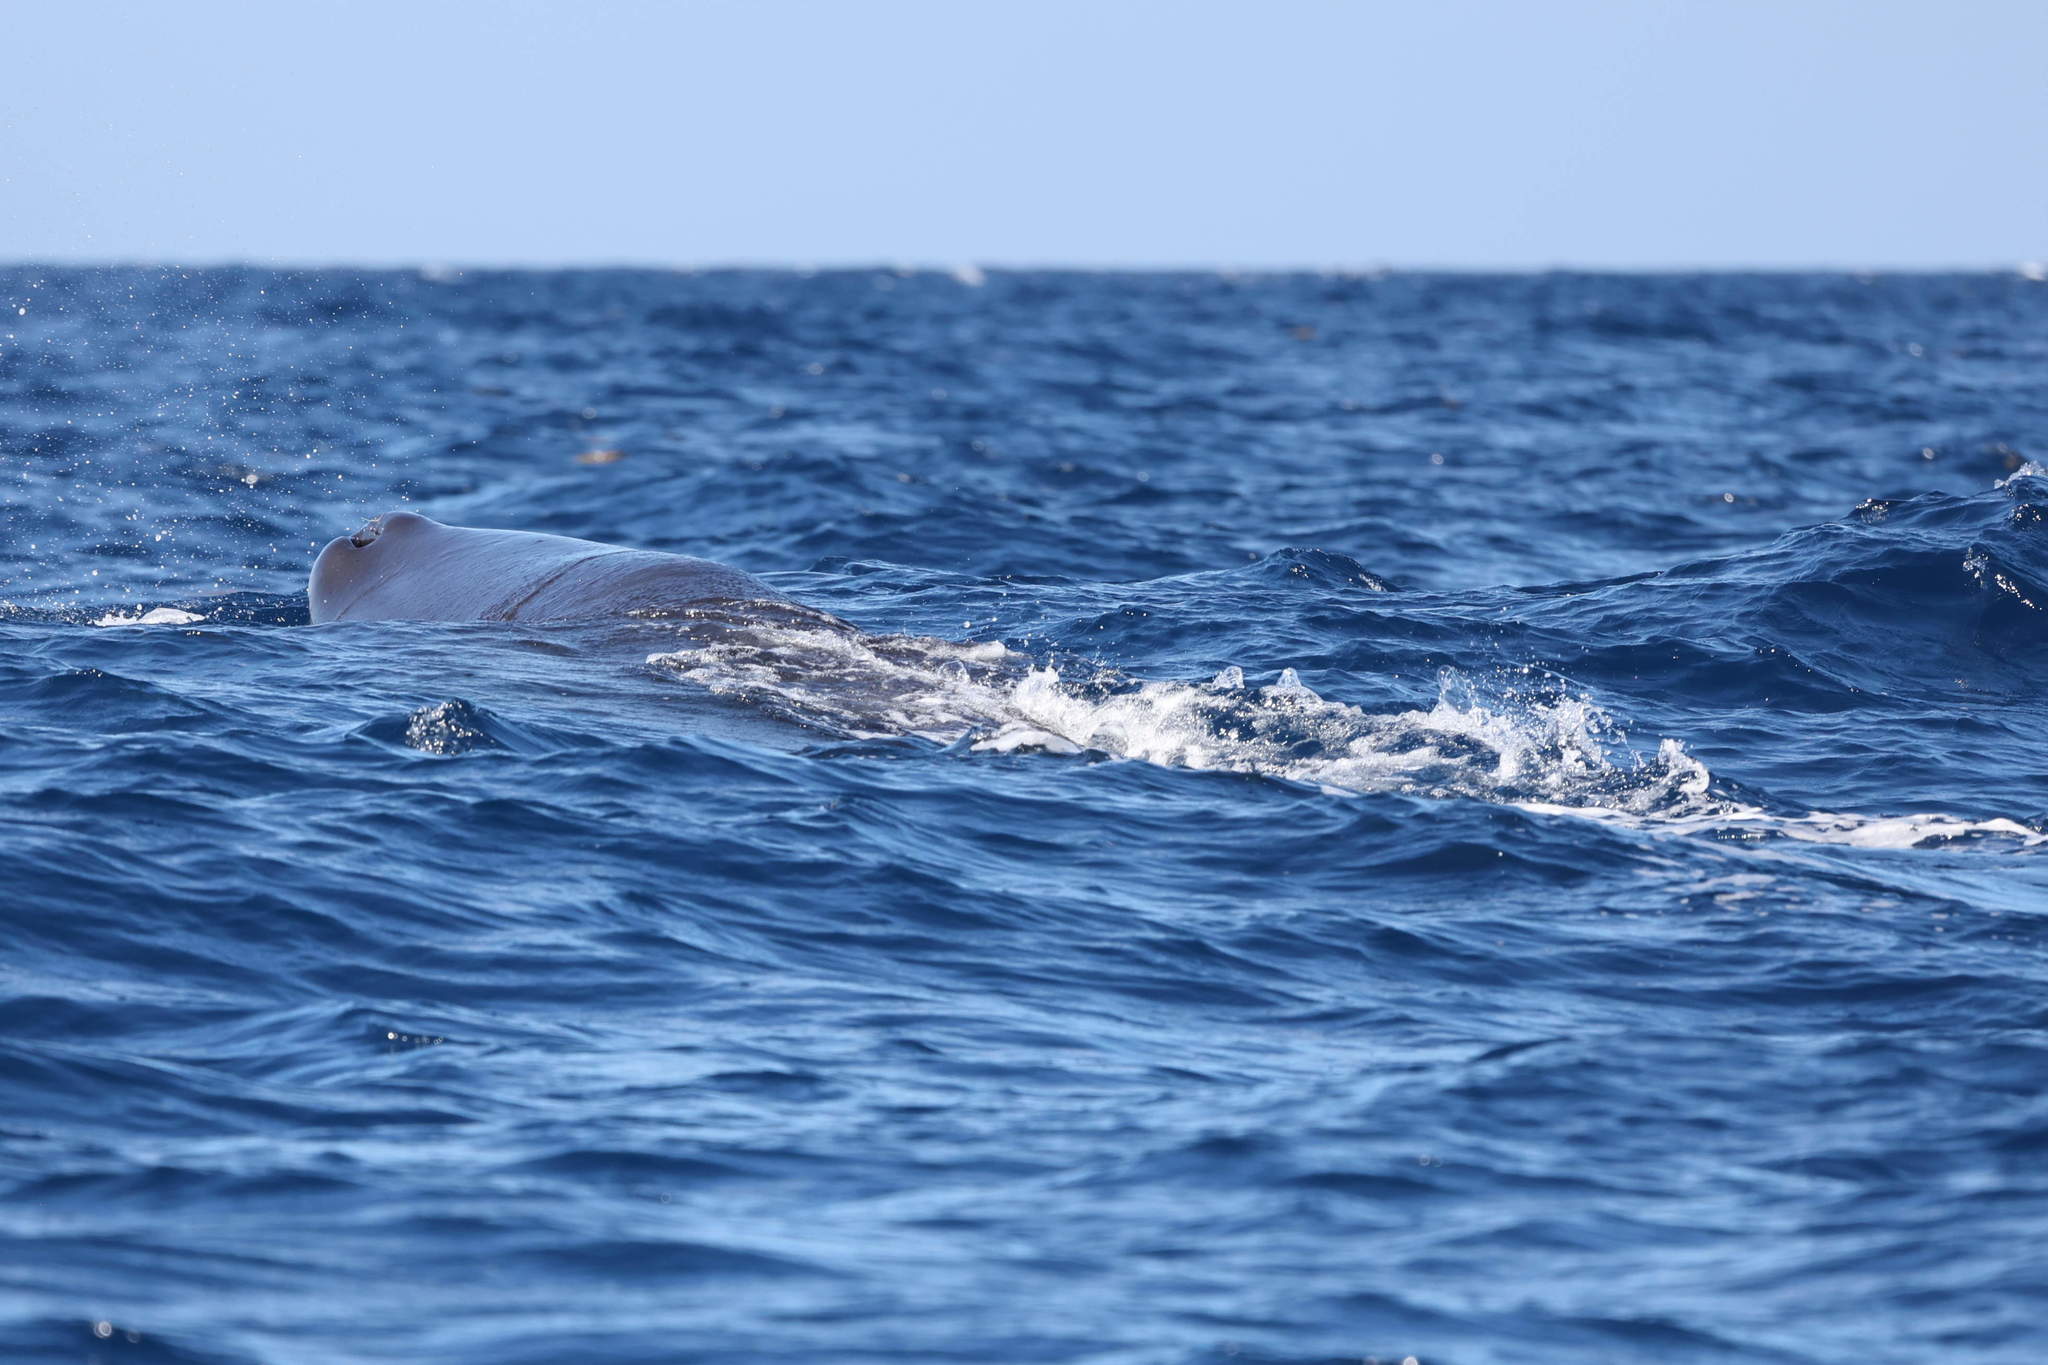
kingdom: Animalia
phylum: Chordata
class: Mammalia
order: Cetacea
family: Physeteridae
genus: Physeter
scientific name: Physeter macrocephalus
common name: Sperm whale
